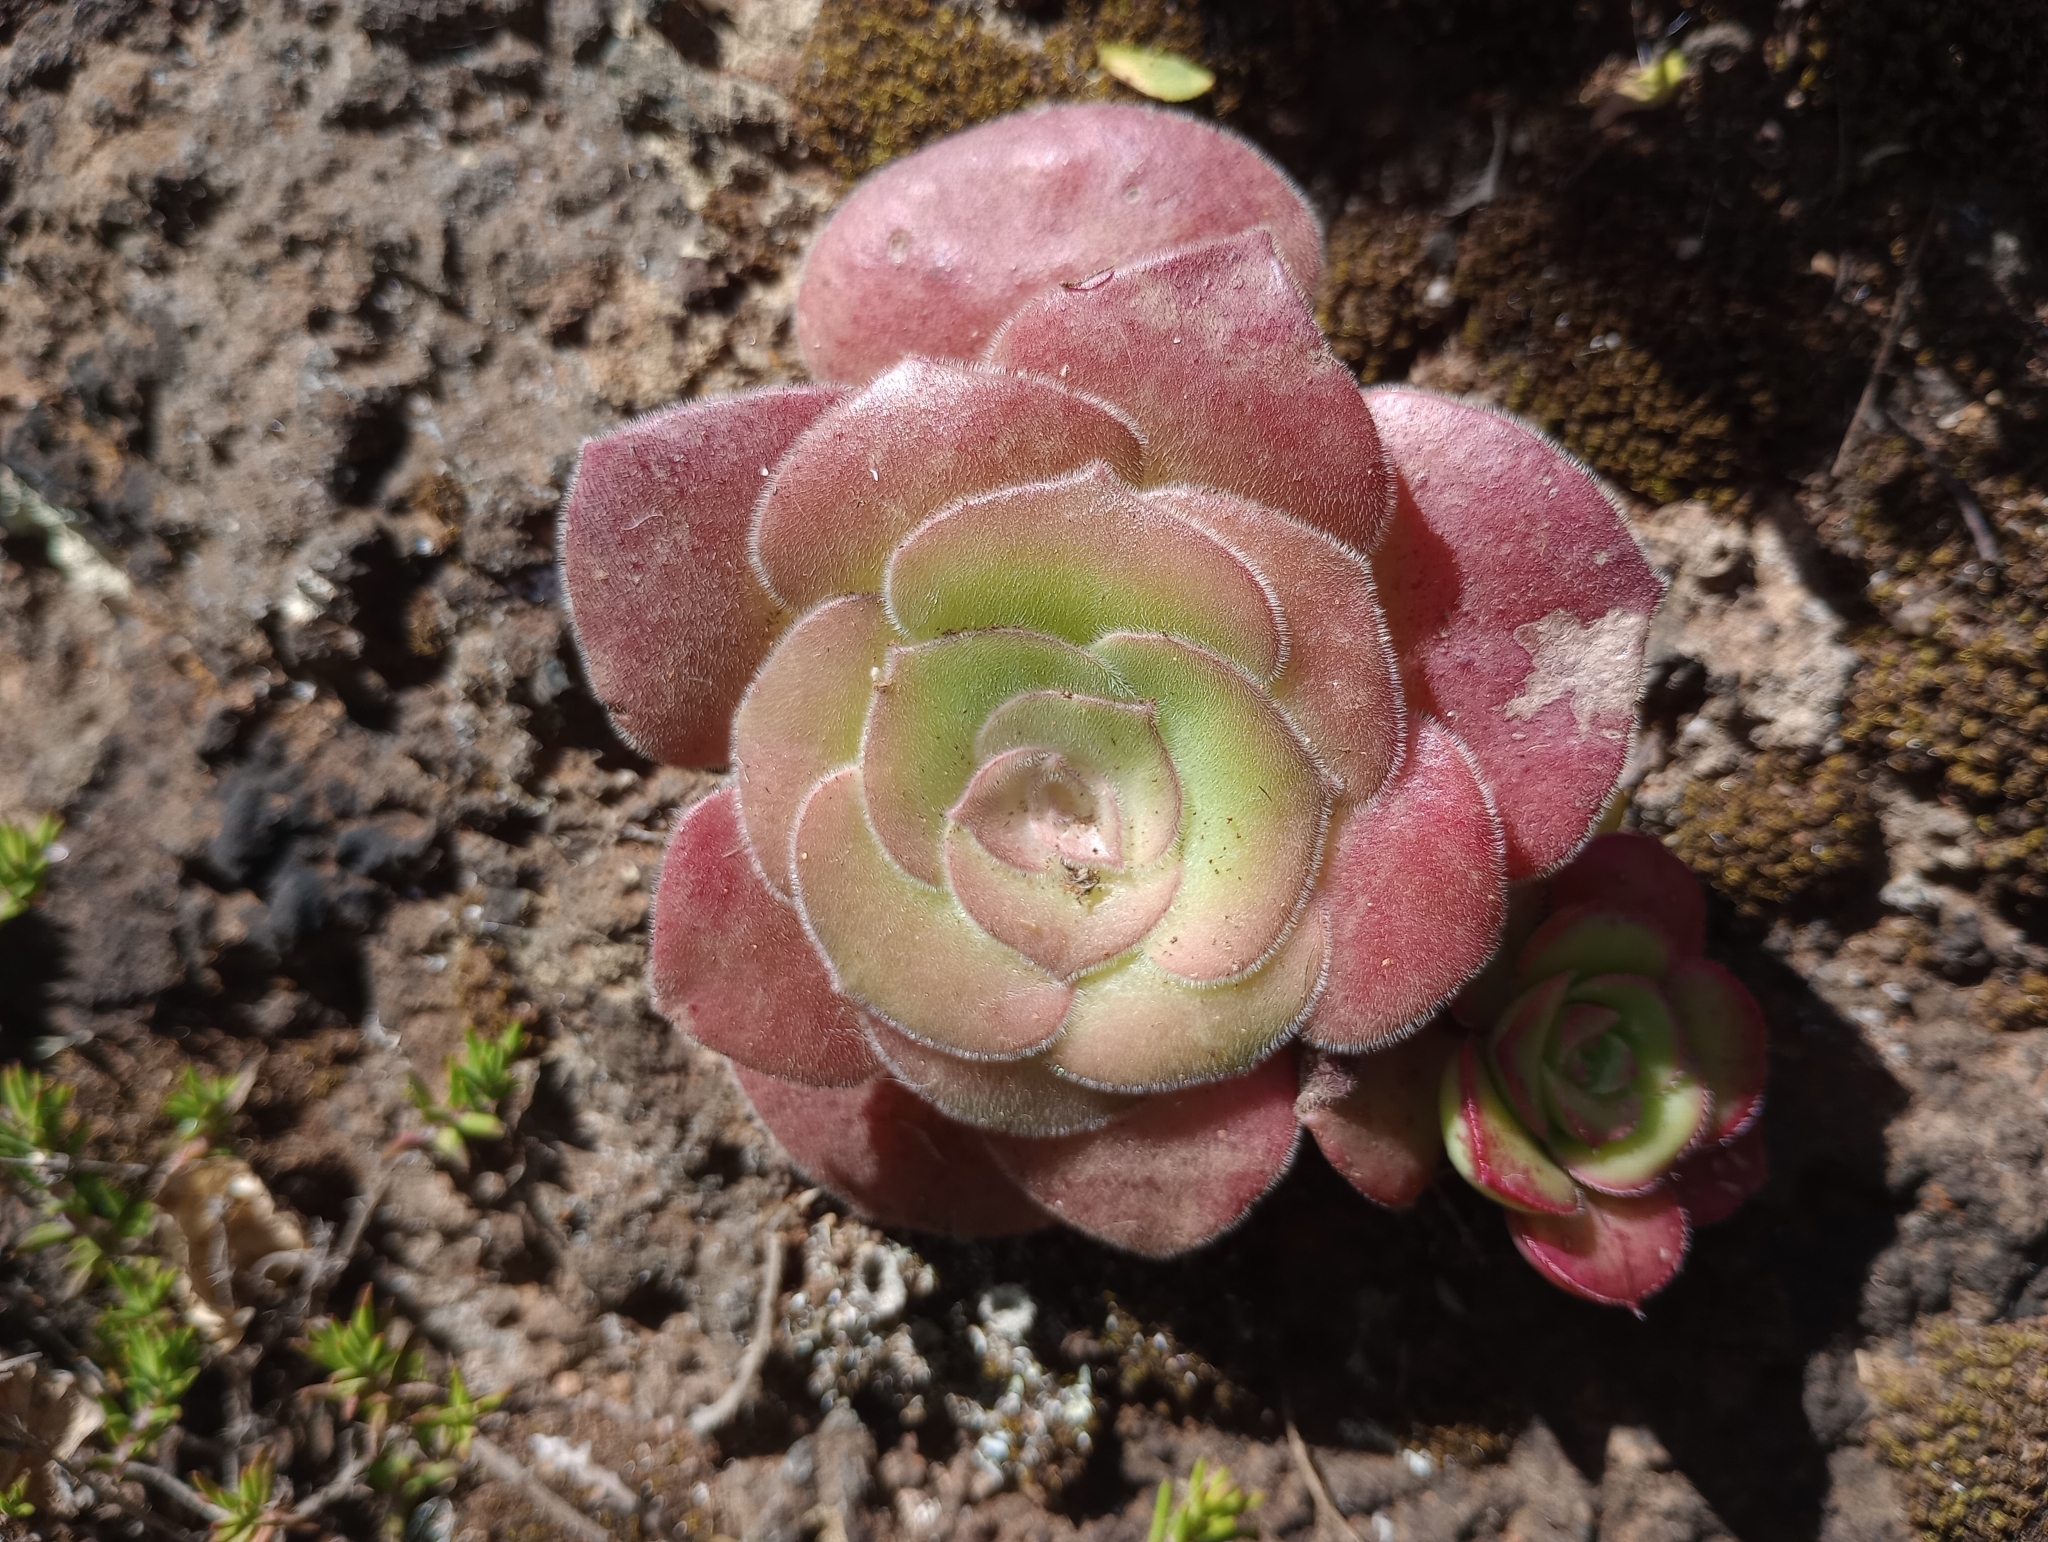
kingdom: Plantae
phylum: Tracheophyta
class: Magnoliopsida
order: Saxifragales
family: Crassulaceae
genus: Aeonium
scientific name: Aeonium canariense
